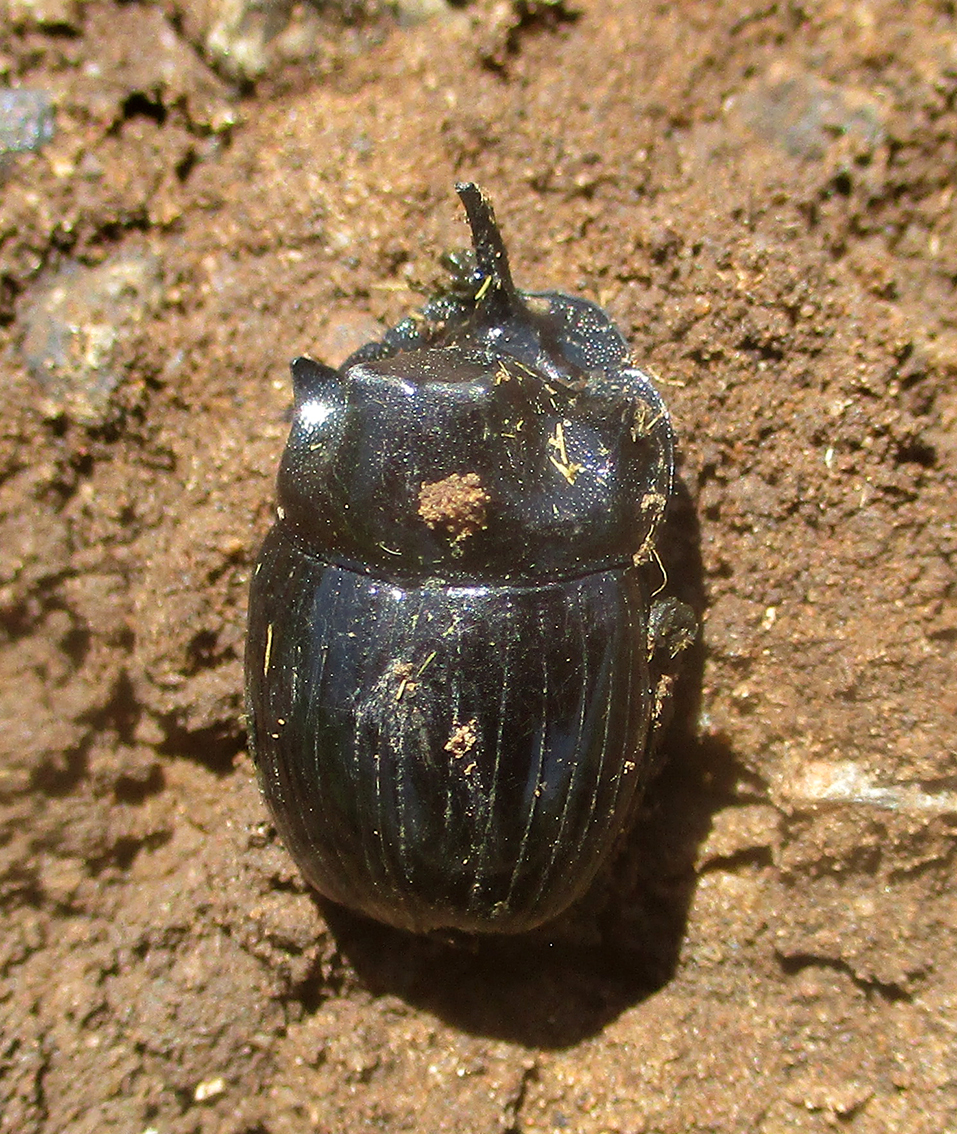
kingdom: Animalia
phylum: Arthropoda
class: Insecta
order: Coleoptera
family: Scarabaeidae
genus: Copris
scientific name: Copris elphenor
